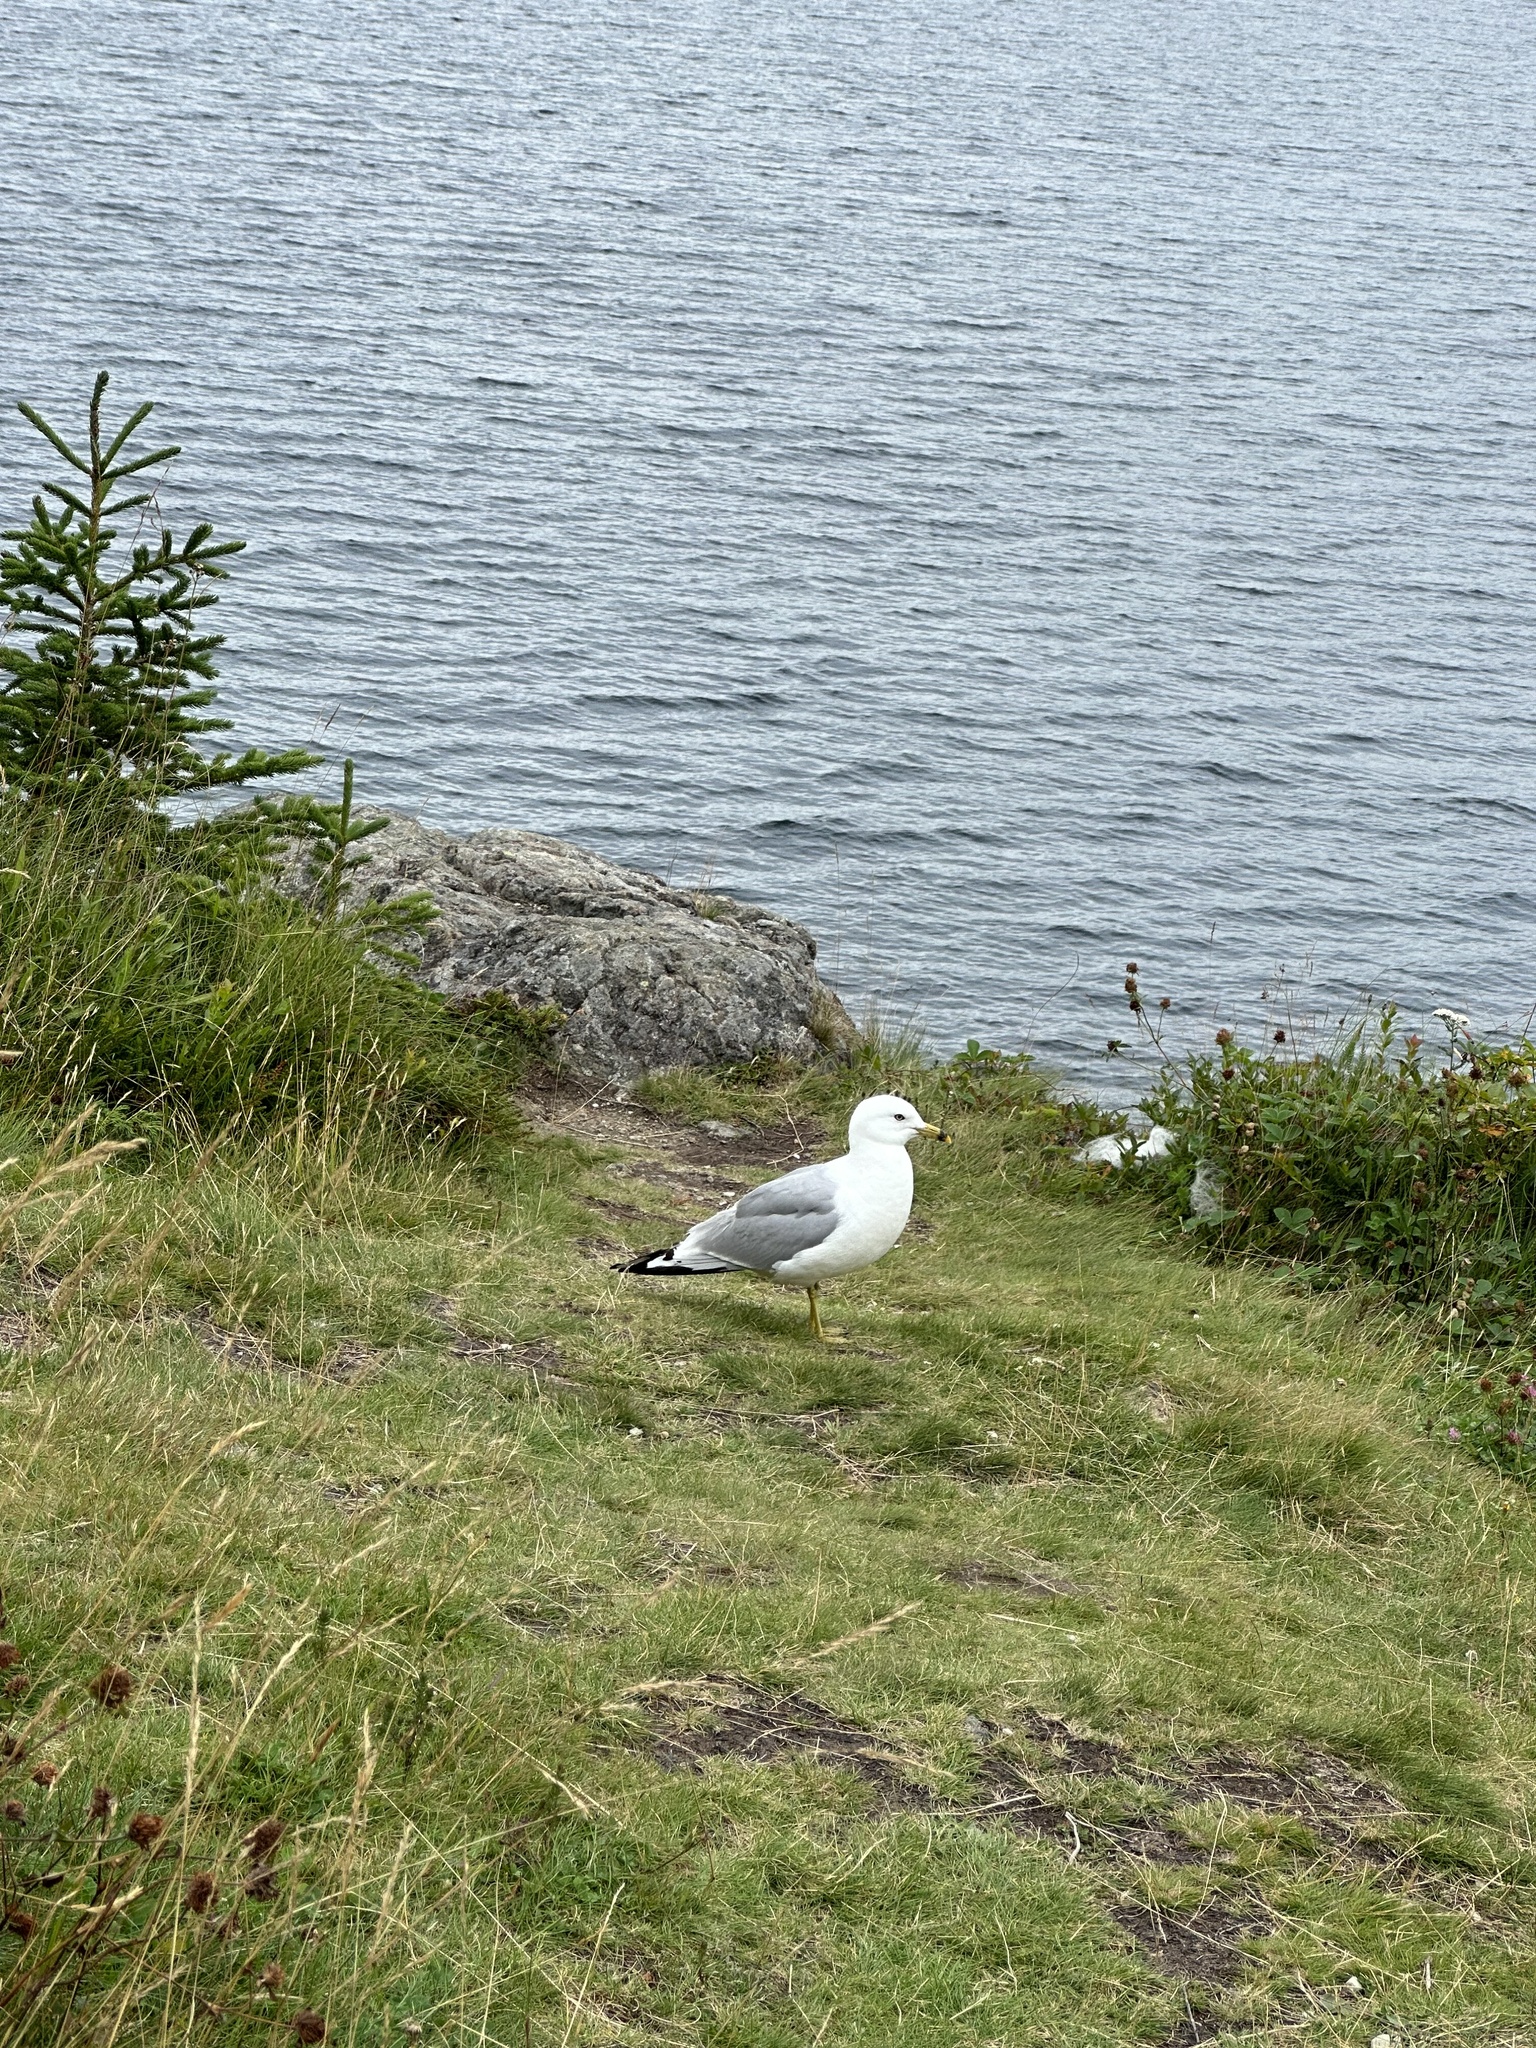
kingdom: Animalia
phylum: Chordata
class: Aves
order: Charadriiformes
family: Laridae
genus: Larus
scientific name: Larus delawarensis
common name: Ring-billed gull
